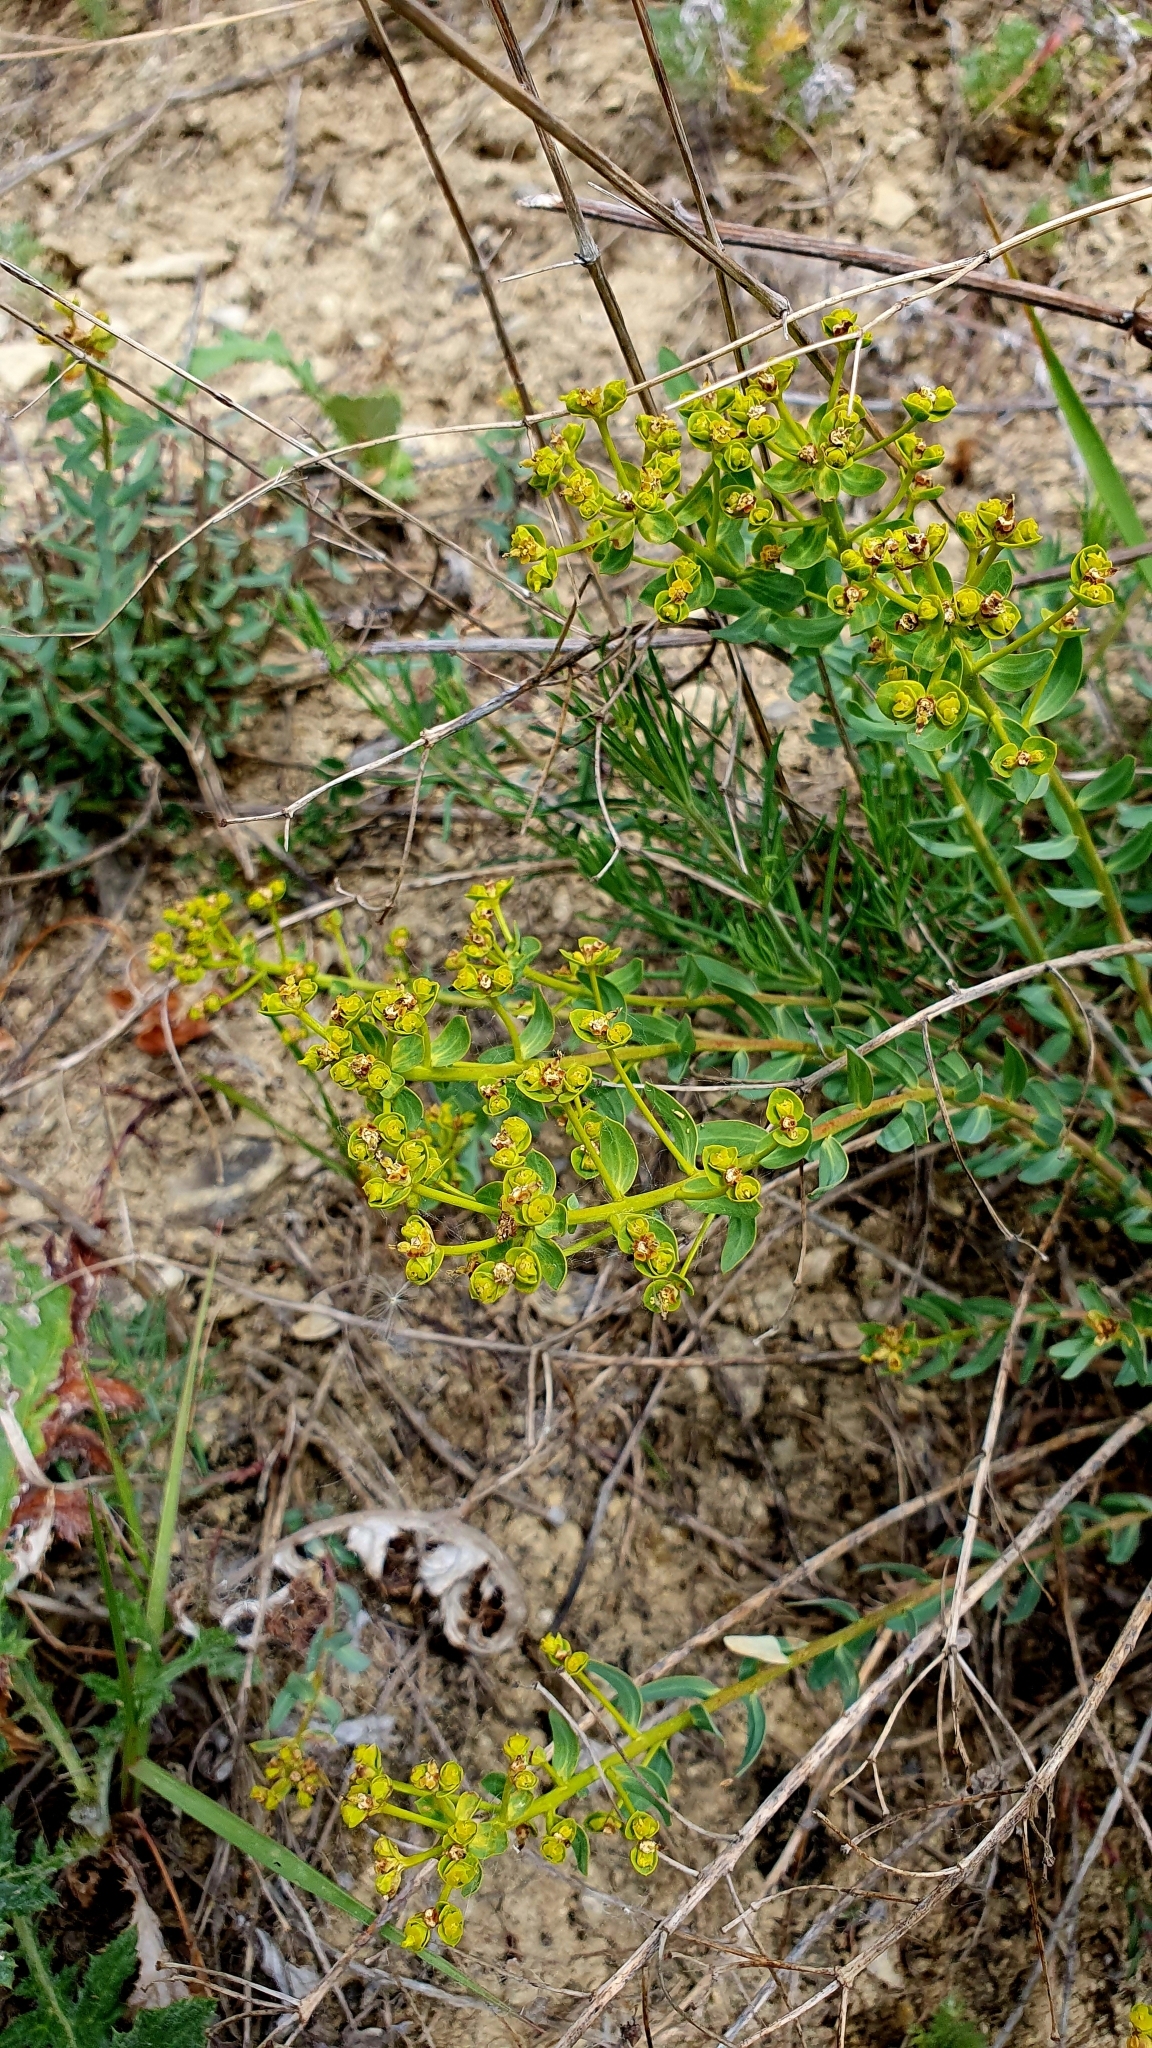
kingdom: Plantae
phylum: Tracheophyta
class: Magnoliopsida
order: Malpighiales
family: Euphorbiaceae
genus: Euphorbia
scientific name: Euphorbia seguieriana
